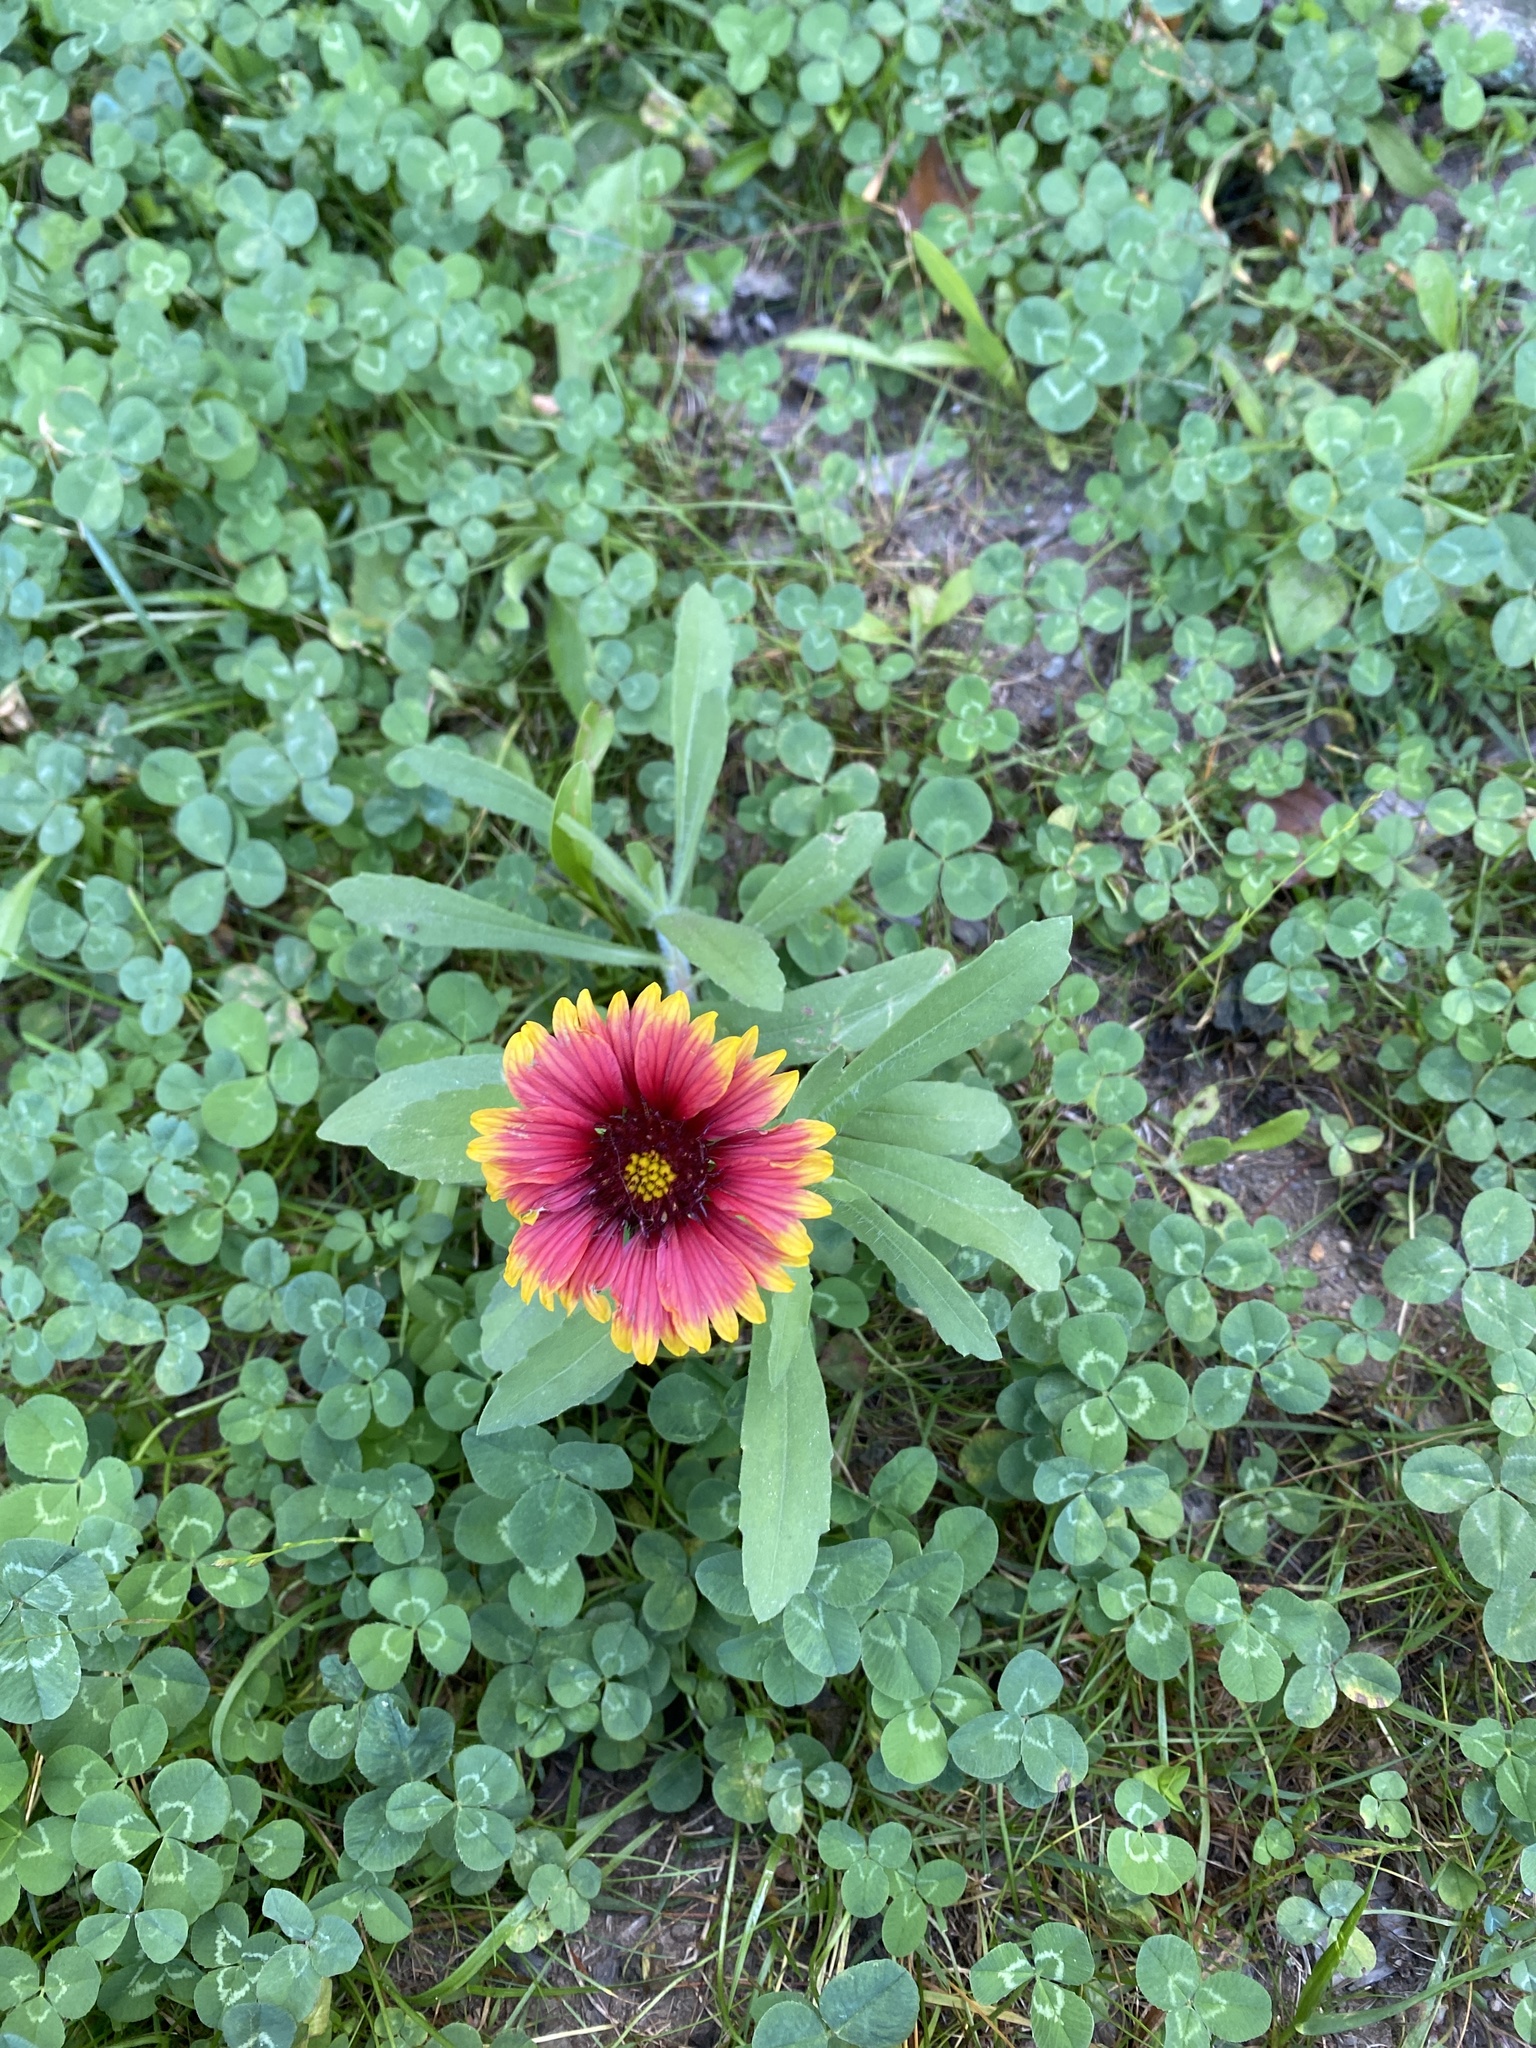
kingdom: Plantae
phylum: Tracheophyta
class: Magnoliopsida
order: Asterales
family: Asteraceae
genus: Gaillardia
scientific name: Gaillardia pulchella
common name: Firewheel
